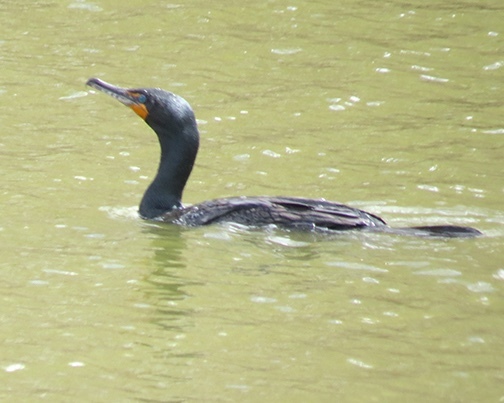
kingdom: Animalia
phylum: Chordata
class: Aves
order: Suliformes
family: Phalacrocoracidae
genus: Phalacrocorax
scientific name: Phalacrocorax auritus
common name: Double-crested cormorant
